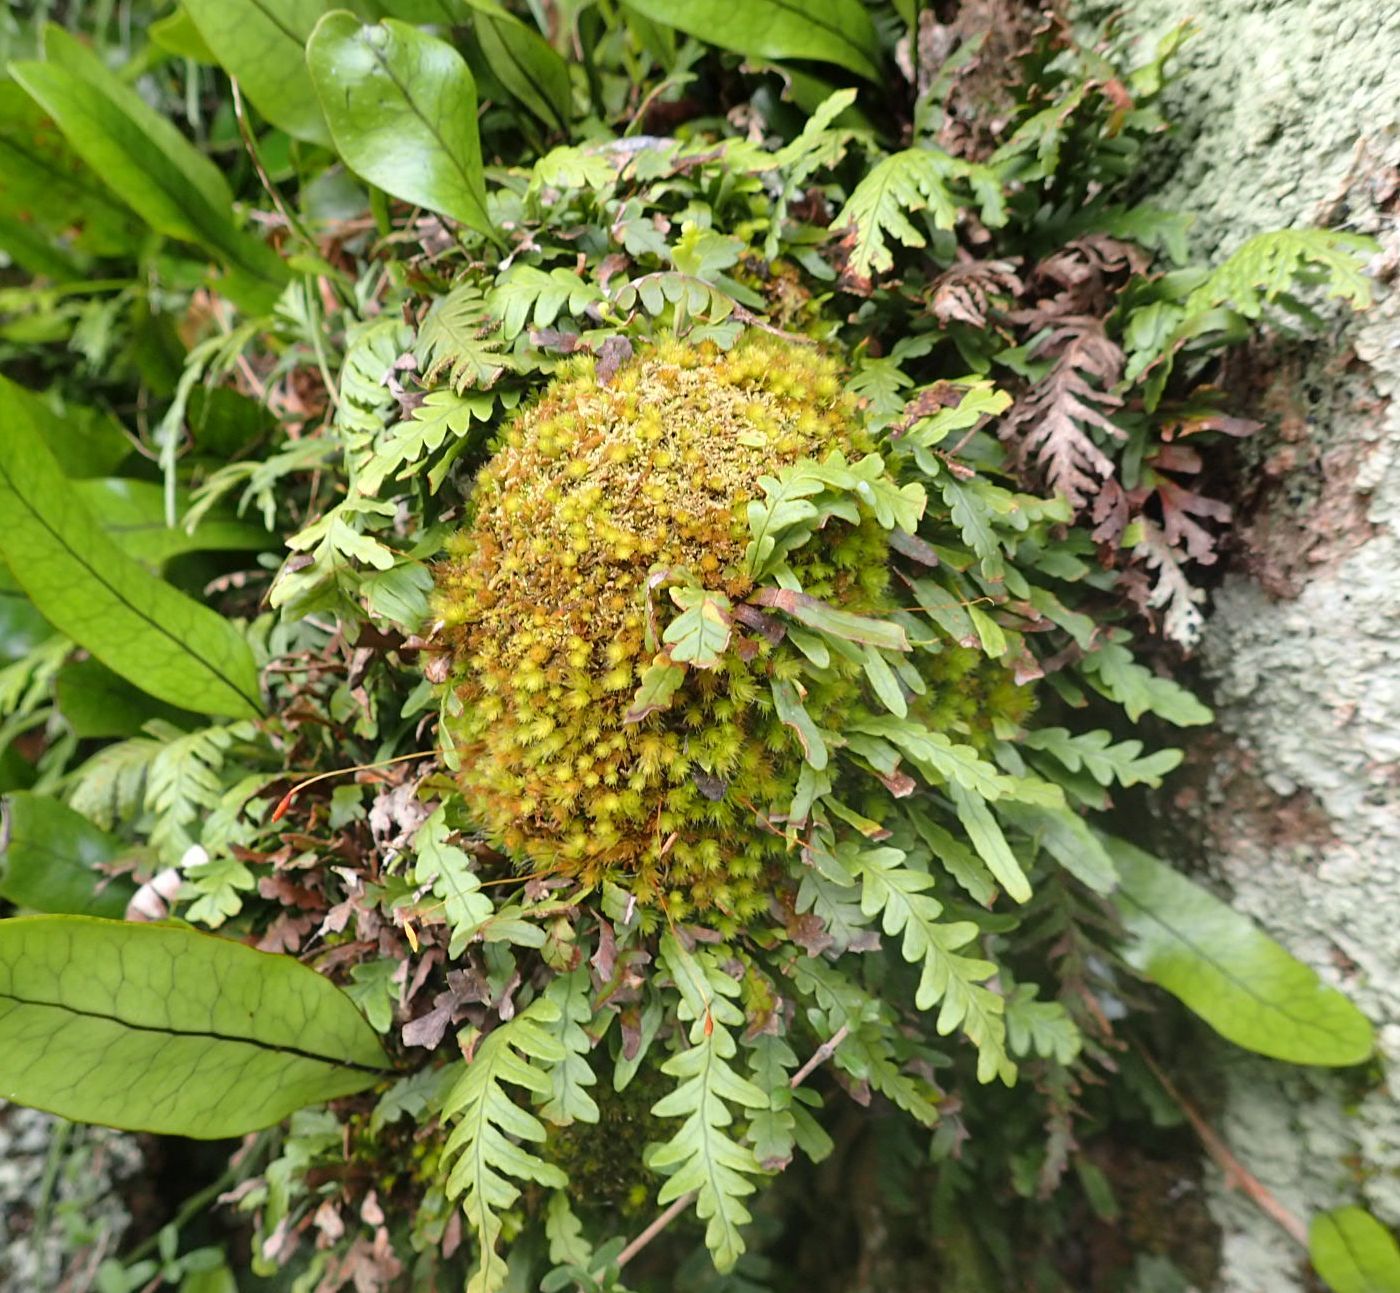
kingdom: Plantae
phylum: Tracheophyta
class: Polypodiopsida
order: Polypodiales
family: Polypodiaceae
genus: Notogrammitis
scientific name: Notogrammitis heterophylla
